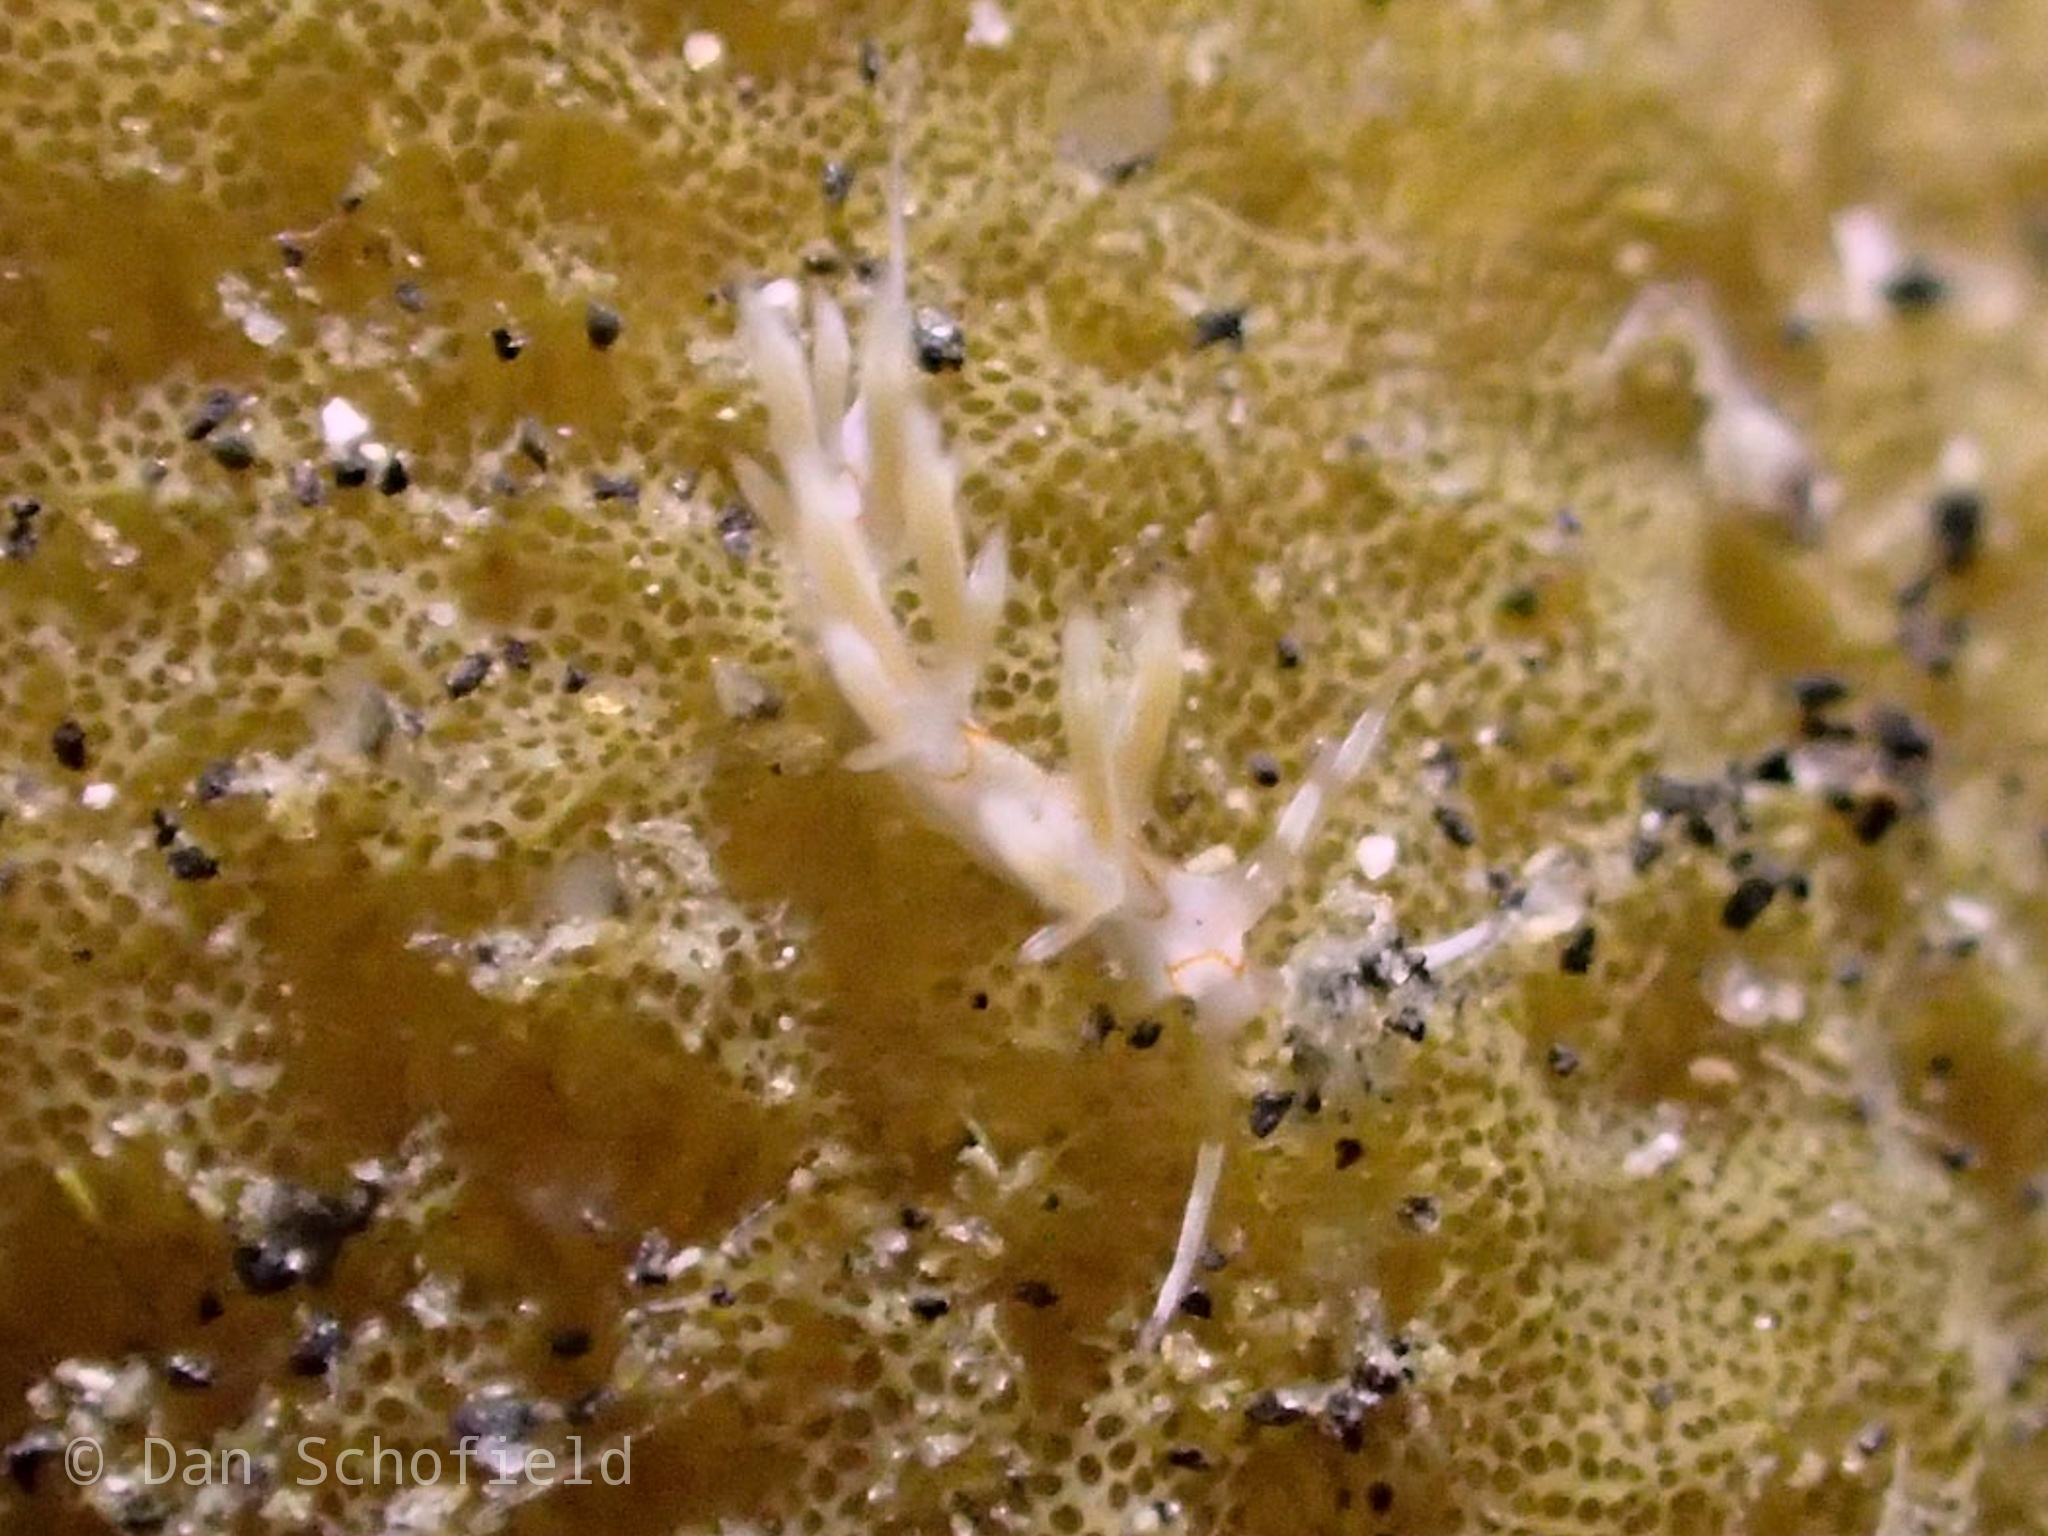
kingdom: Animalia
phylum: Mollusca
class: Gastropoda
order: Nudibranchia
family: Facelinidae
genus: Cratena
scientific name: Cratena simba
